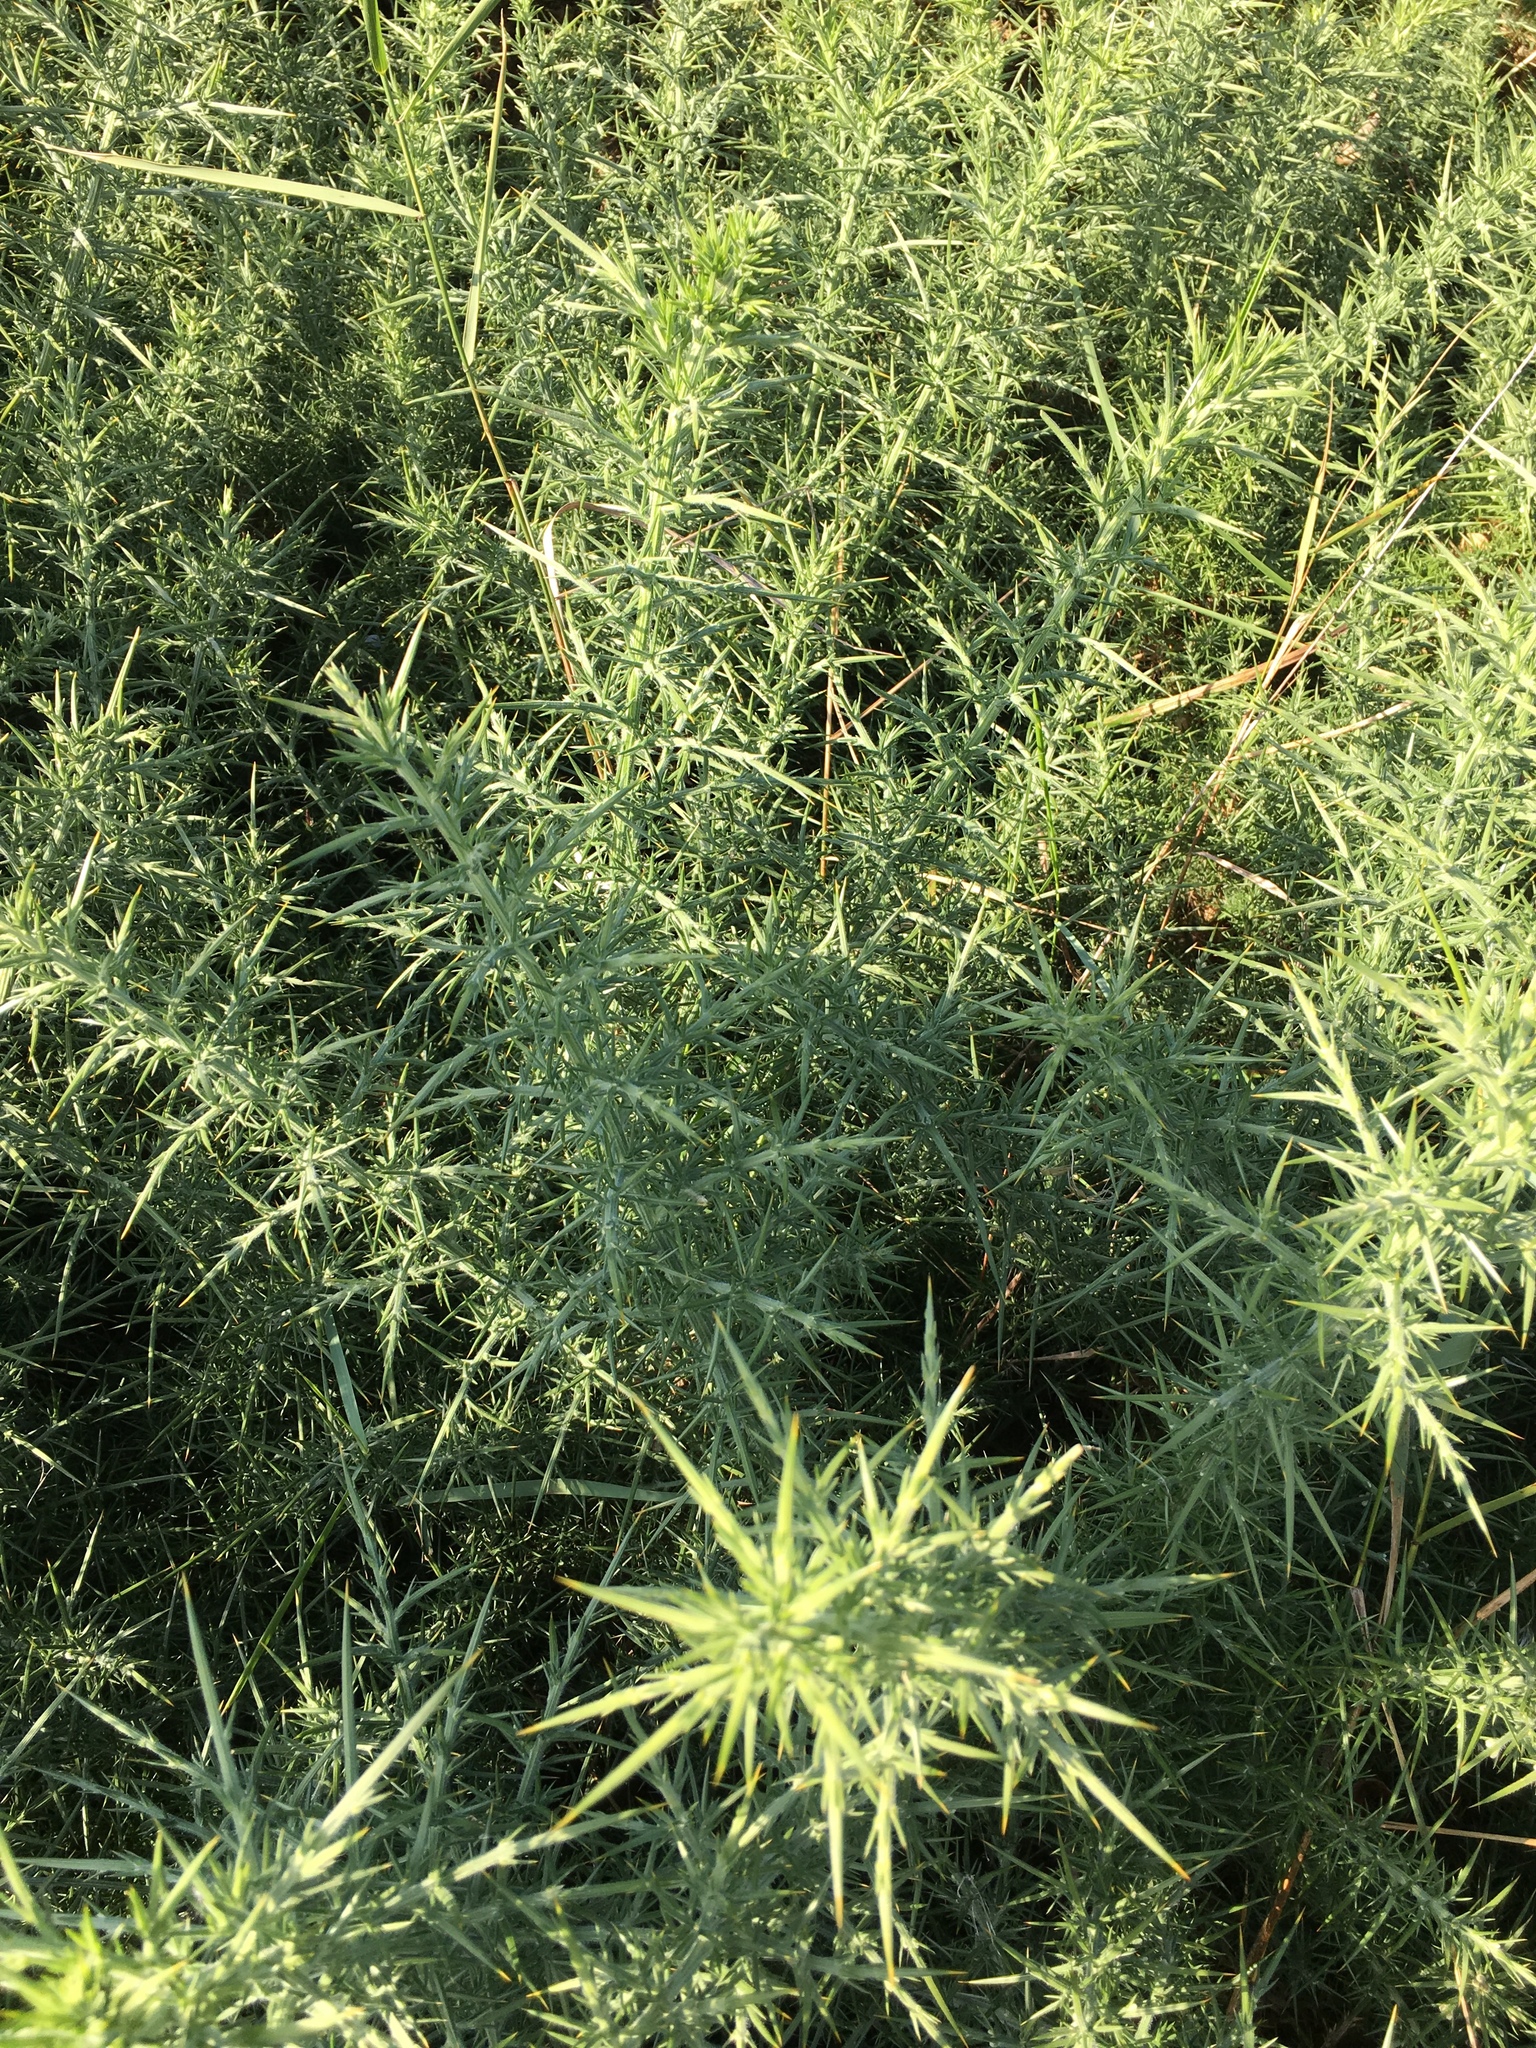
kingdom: Plantae
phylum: Tracheophyta
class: Magnoliopsida
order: Fabales
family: Fabaceae
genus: Ulex
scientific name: Ulex europaeus
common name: Common gorse
